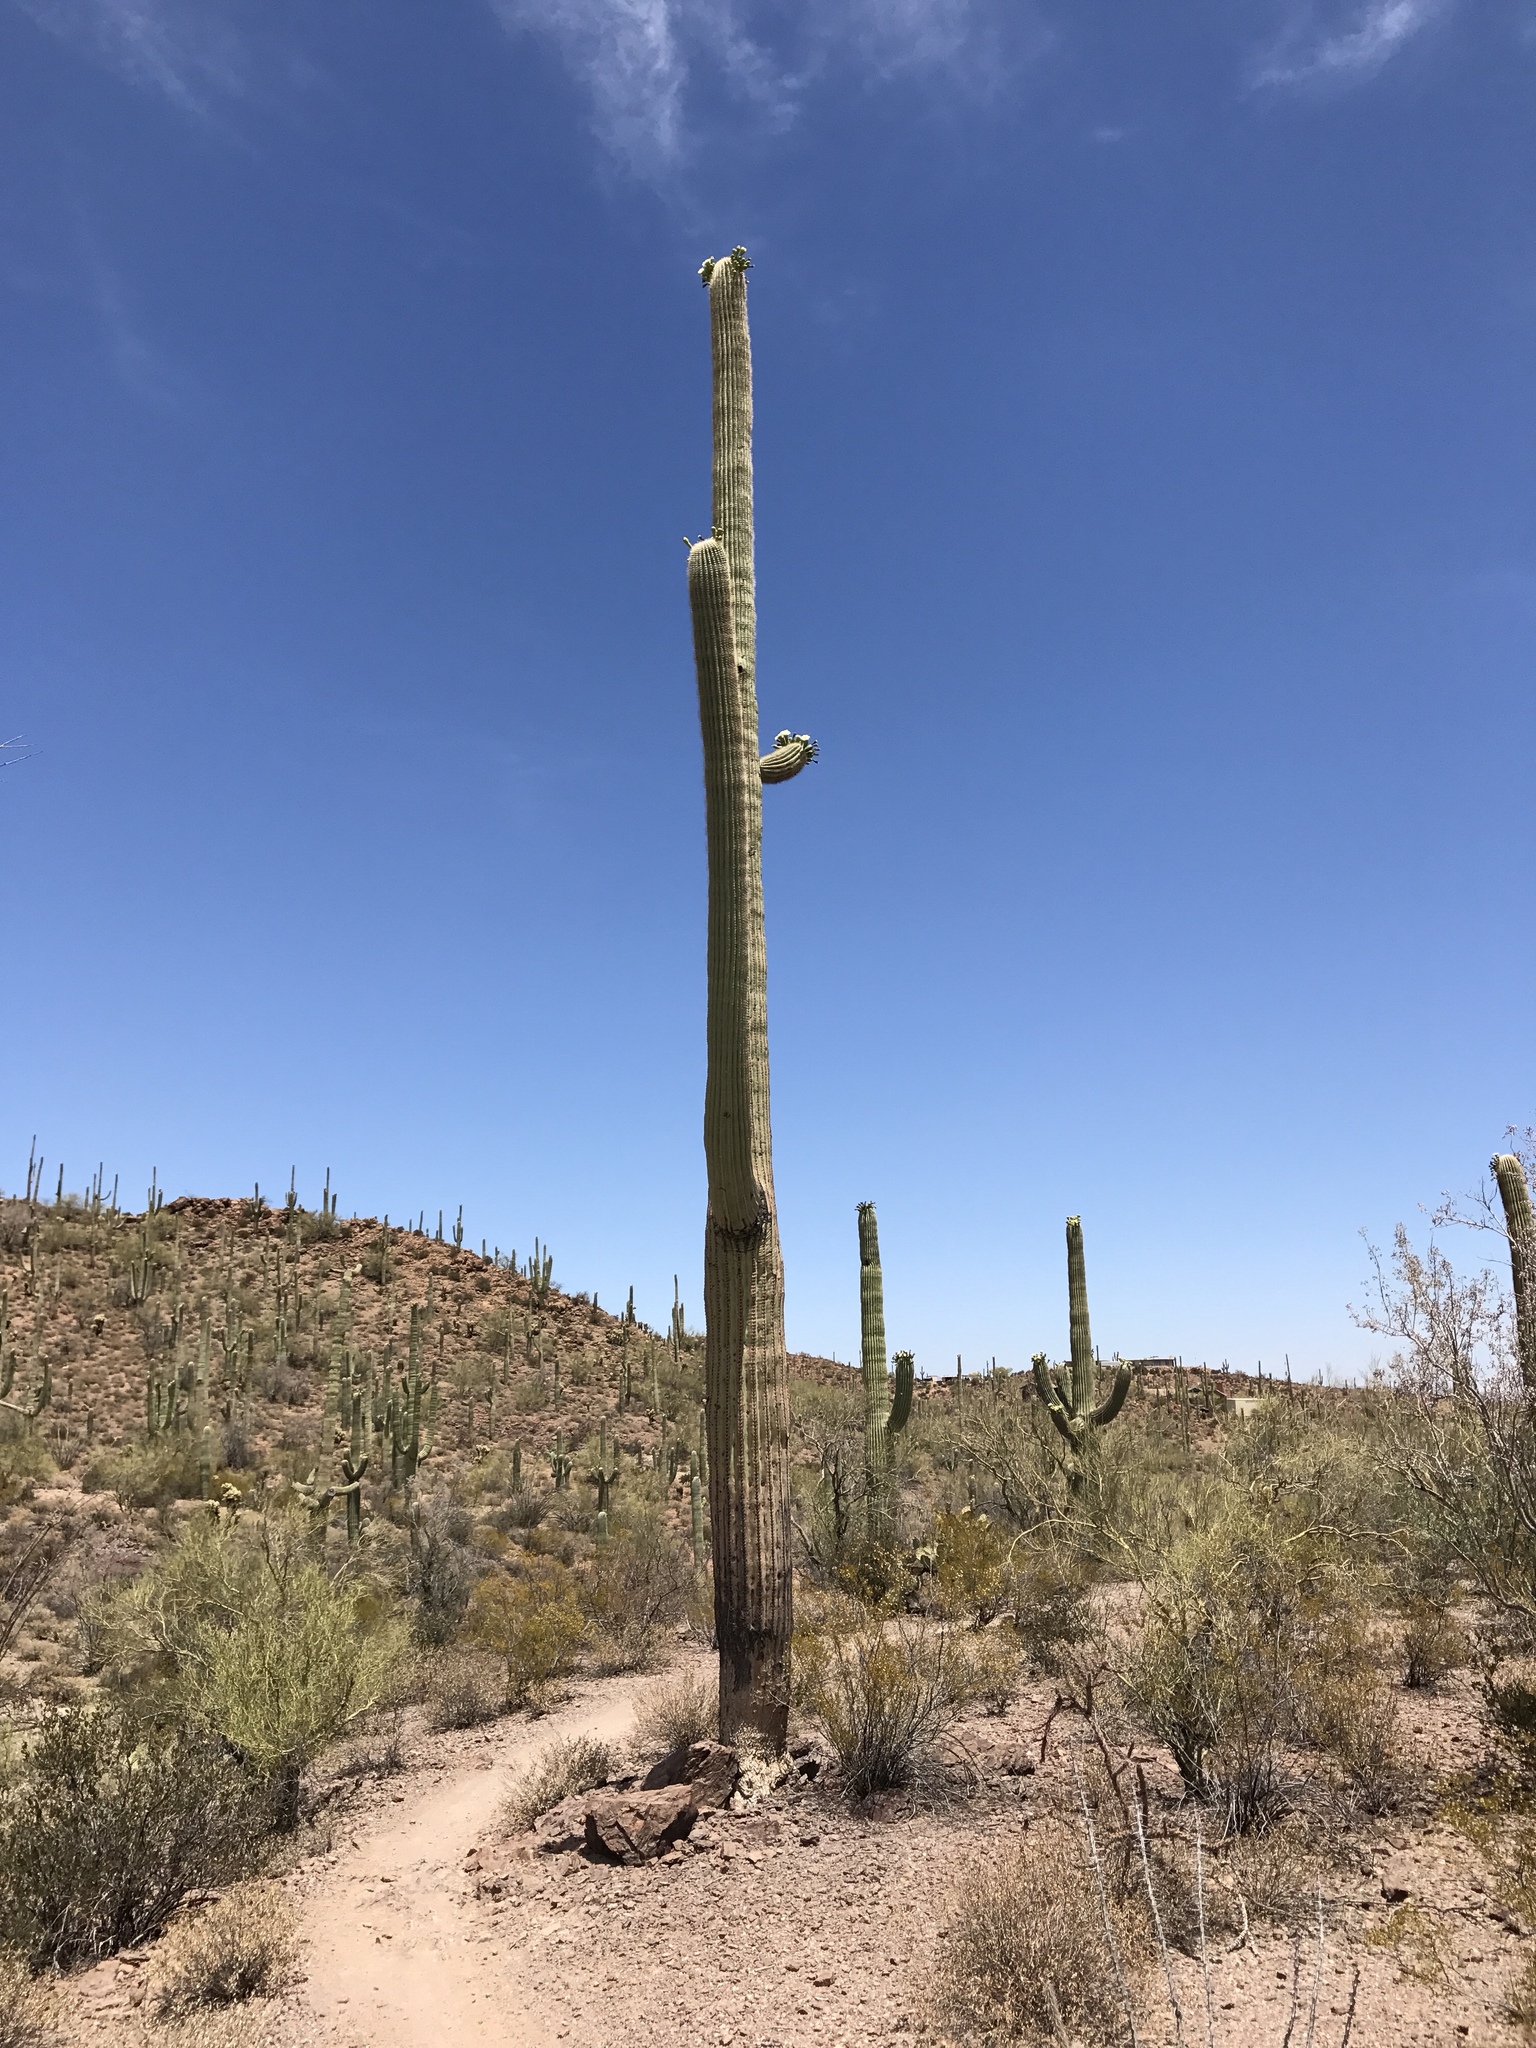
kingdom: Plantae
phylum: Tracheophyta
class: Magnoliopsida
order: Caryophyllales
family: Cactaceae
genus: Carnegiea
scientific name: Carnegiea gigantea
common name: Saguaro
